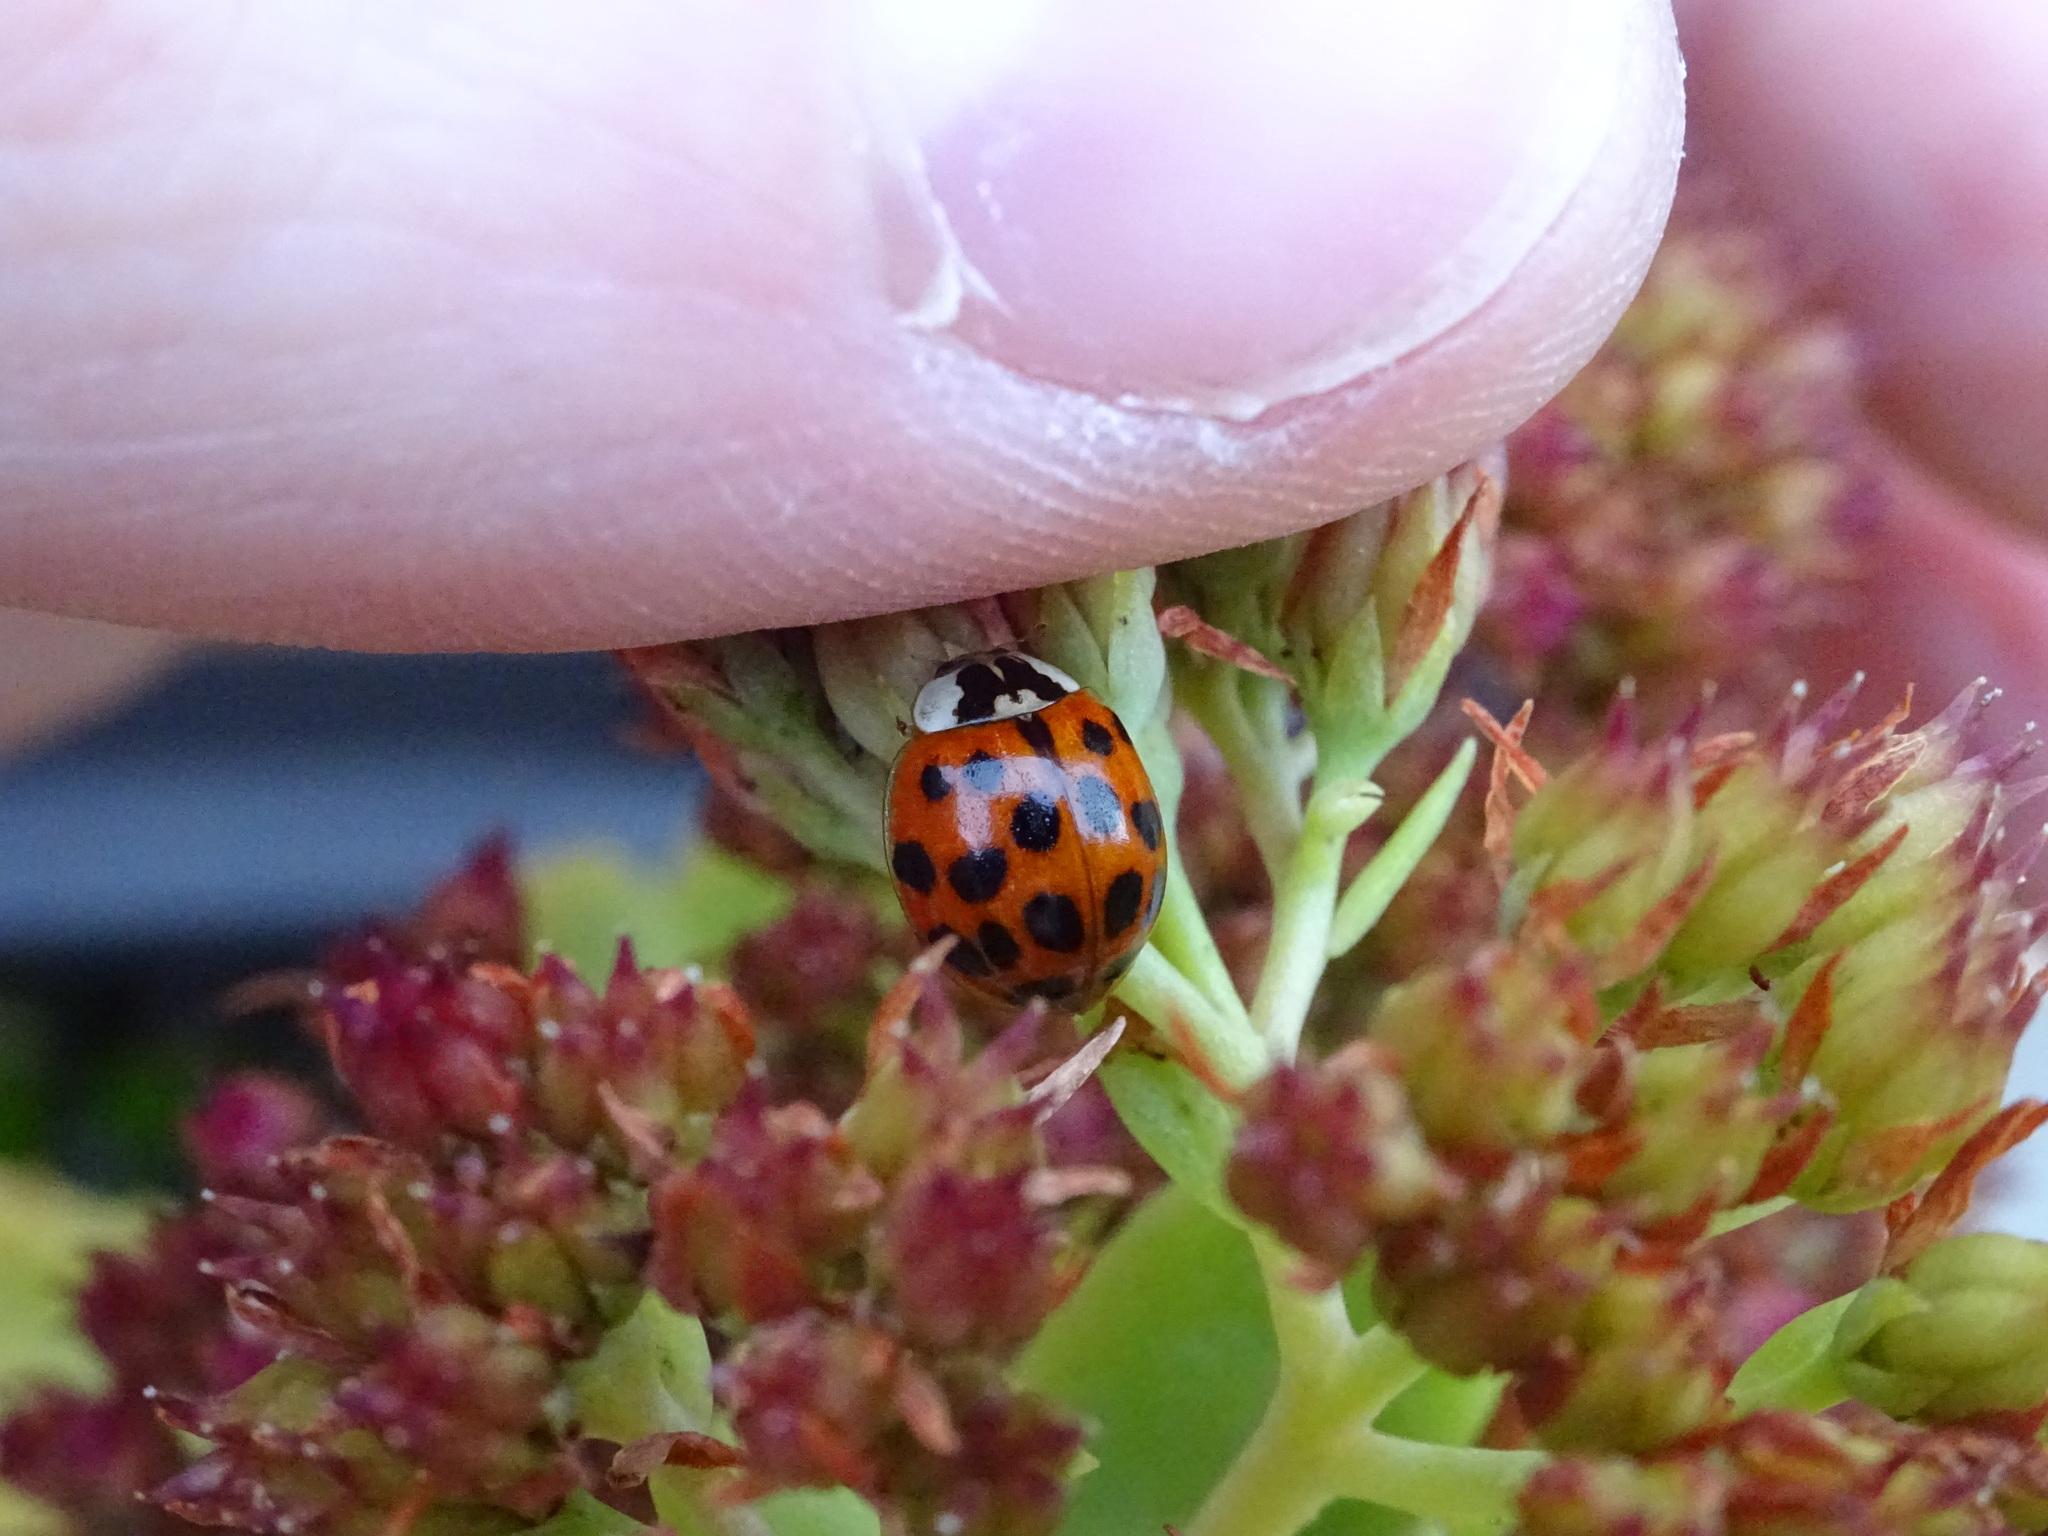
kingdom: Animalia
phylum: Arthropoda
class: Insecta
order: Coleoptera
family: Coccinellidae
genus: Harmonia
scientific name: Harmonia axyridis
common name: Harlequin ladybird
